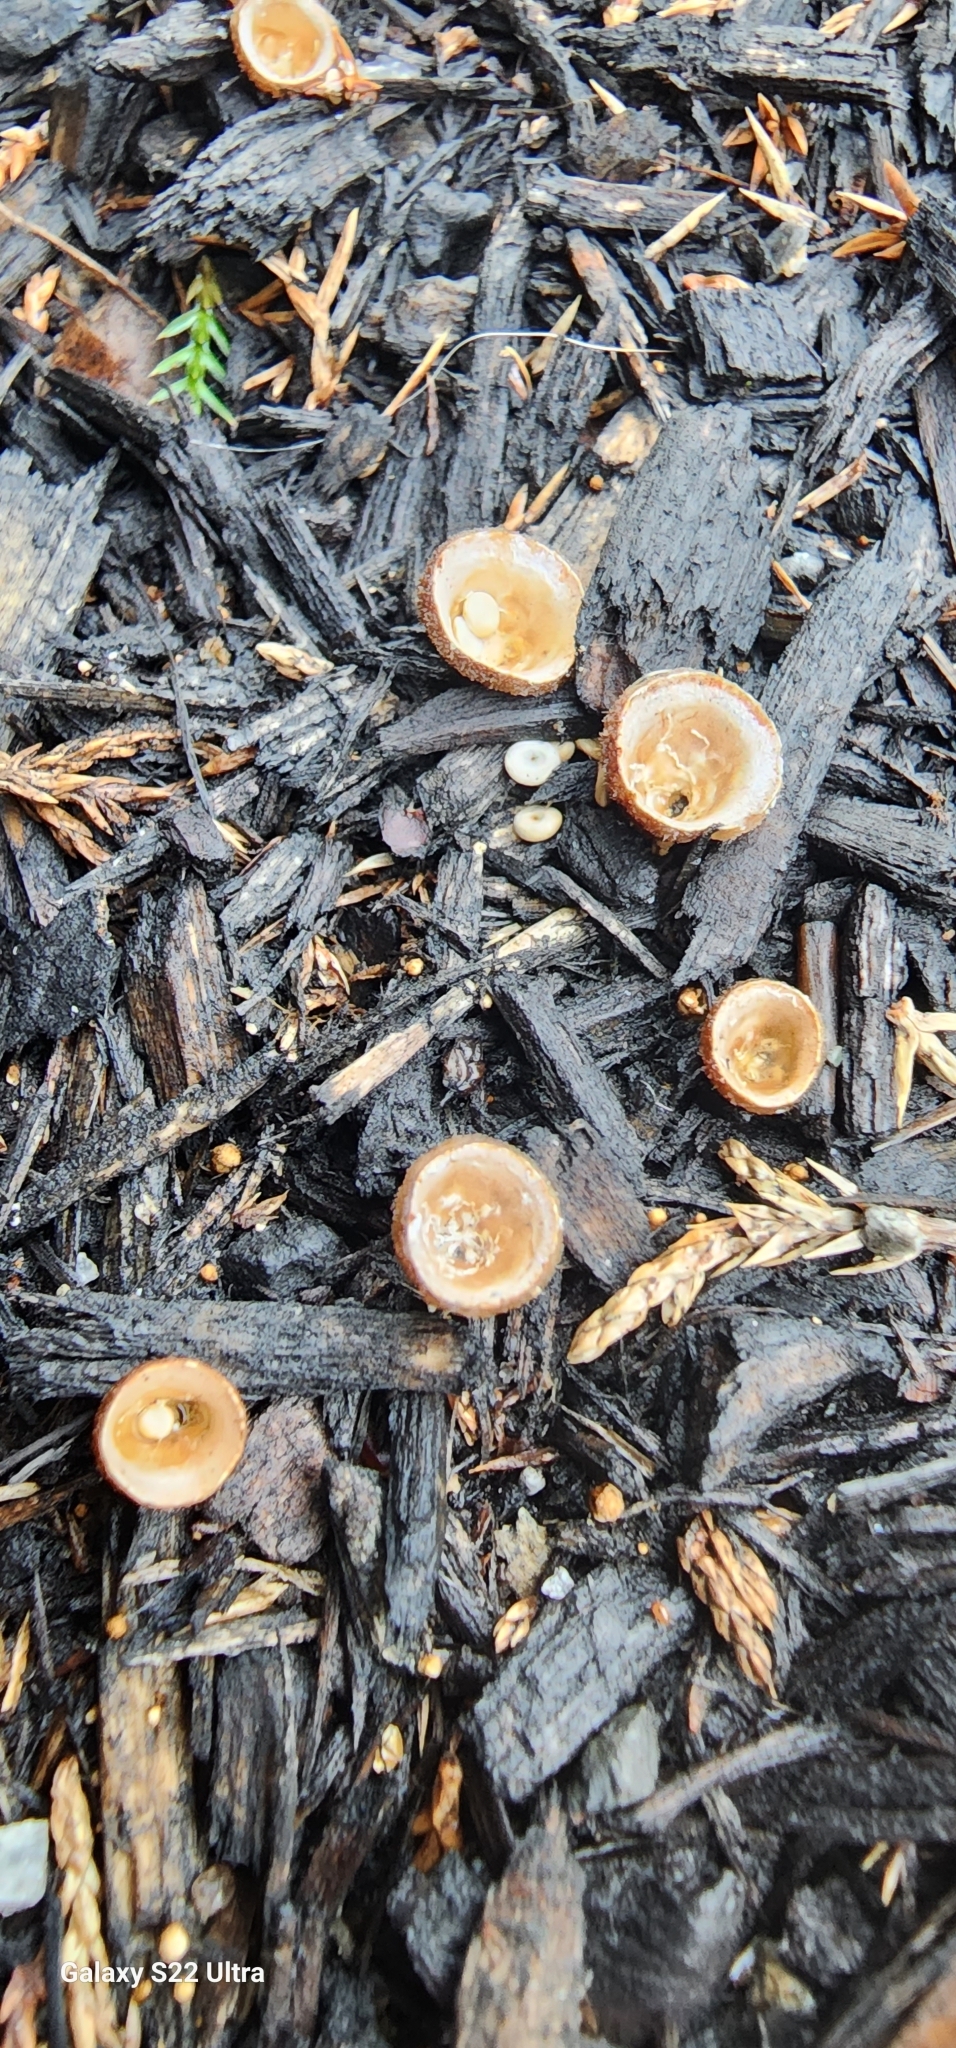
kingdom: Fungi
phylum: Basidiomycota
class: Agaricomycetes
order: Agaricales
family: Nidulariaceae
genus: Crucibulum
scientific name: Crucibulum laeve
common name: Common bird's nest
